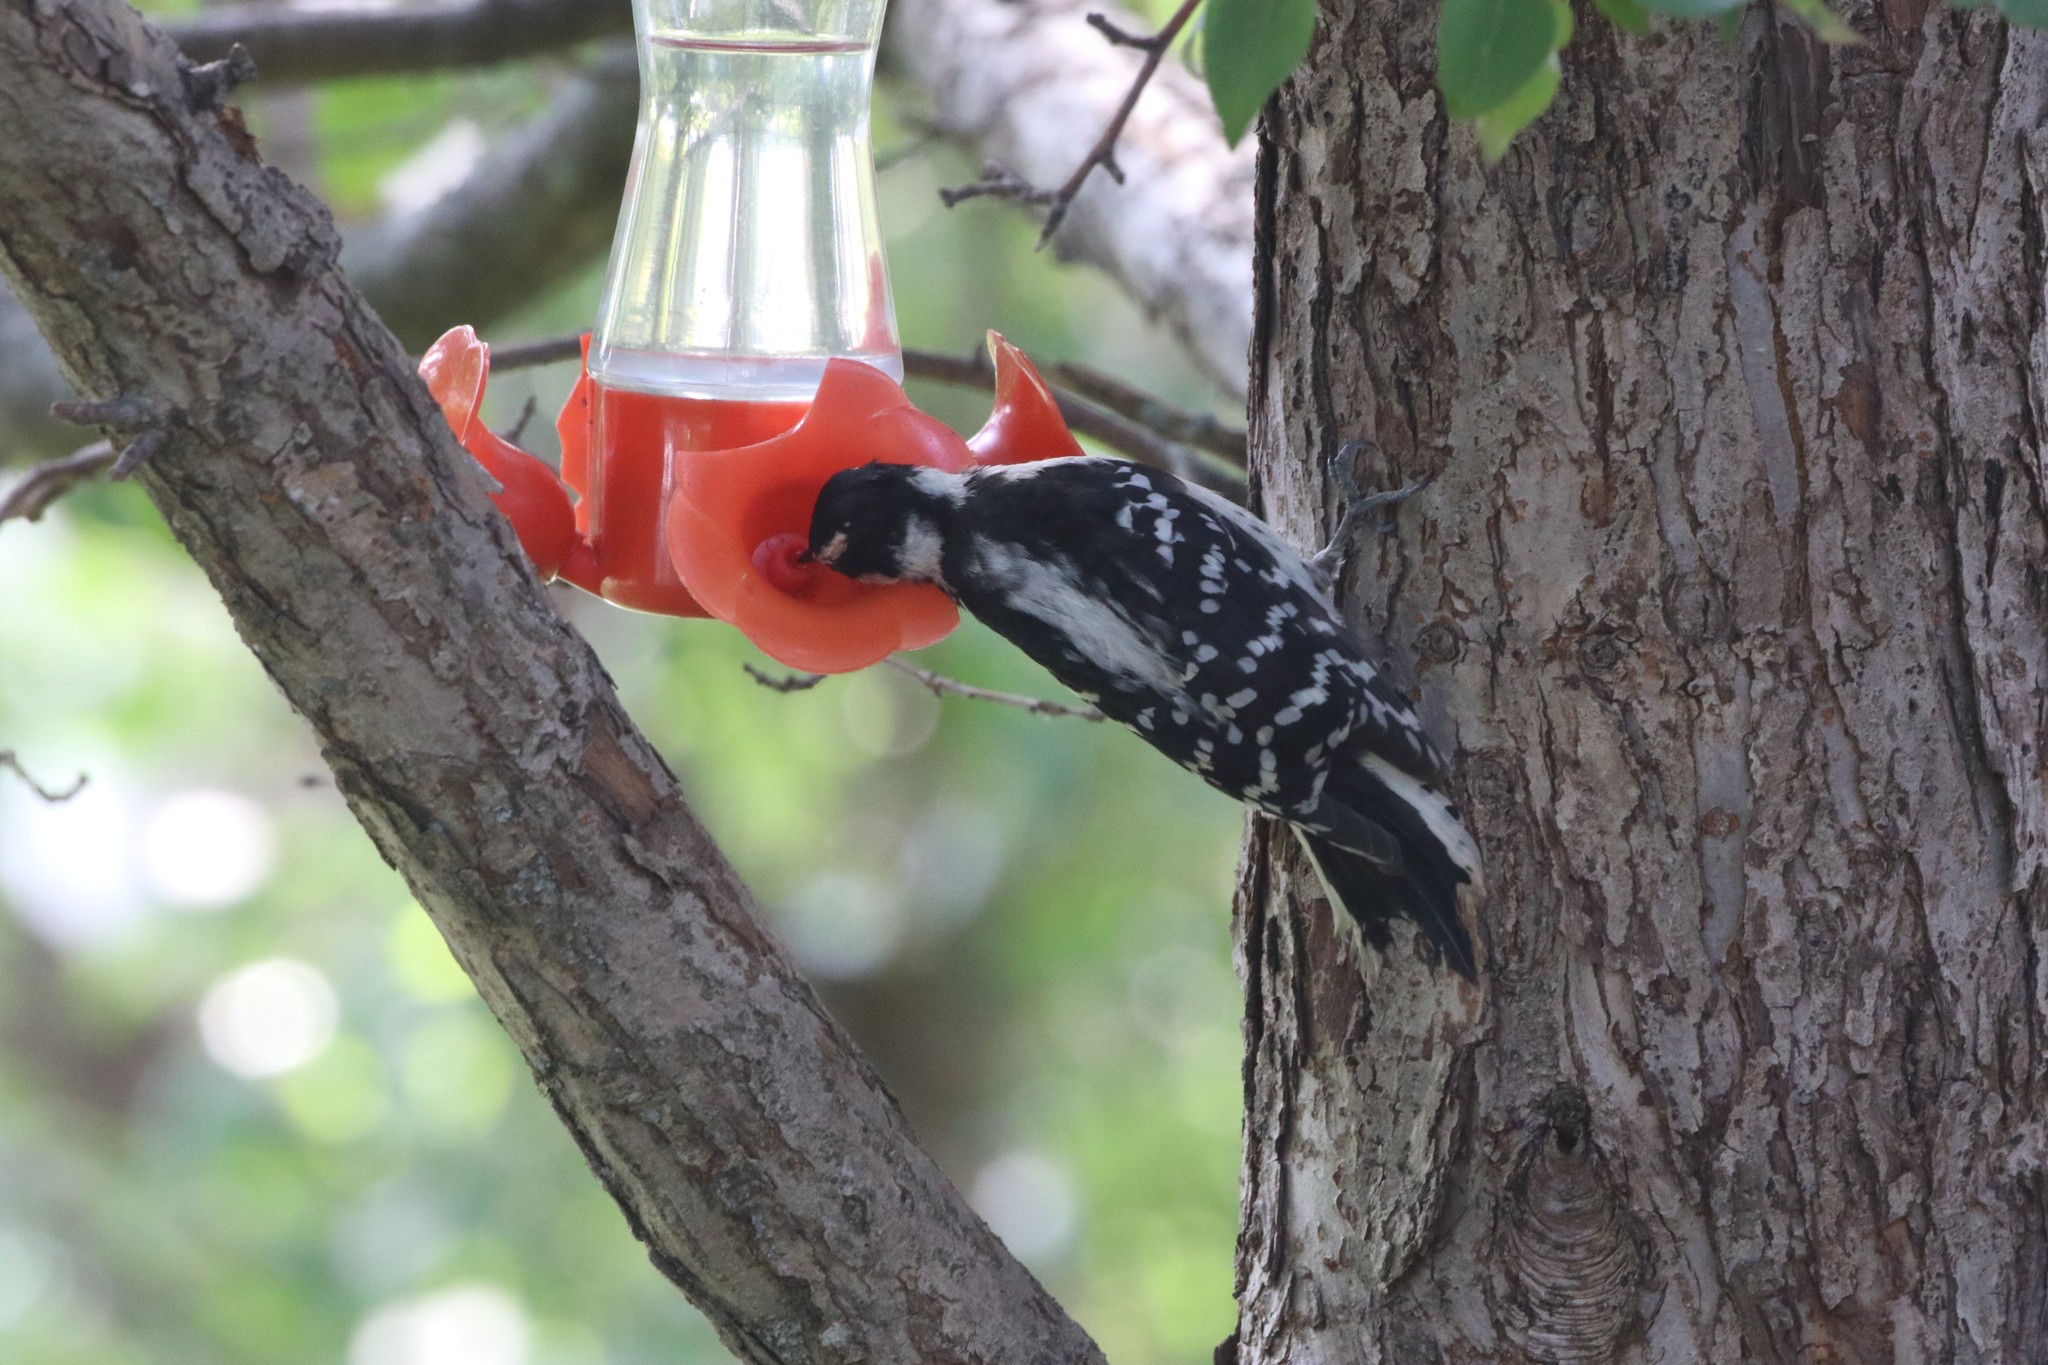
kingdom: Animalia
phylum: Chordata
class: Aves
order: Piciformes
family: Picidae
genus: Dryobates
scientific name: Dryobates pubescens
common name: Downy woodpecker
